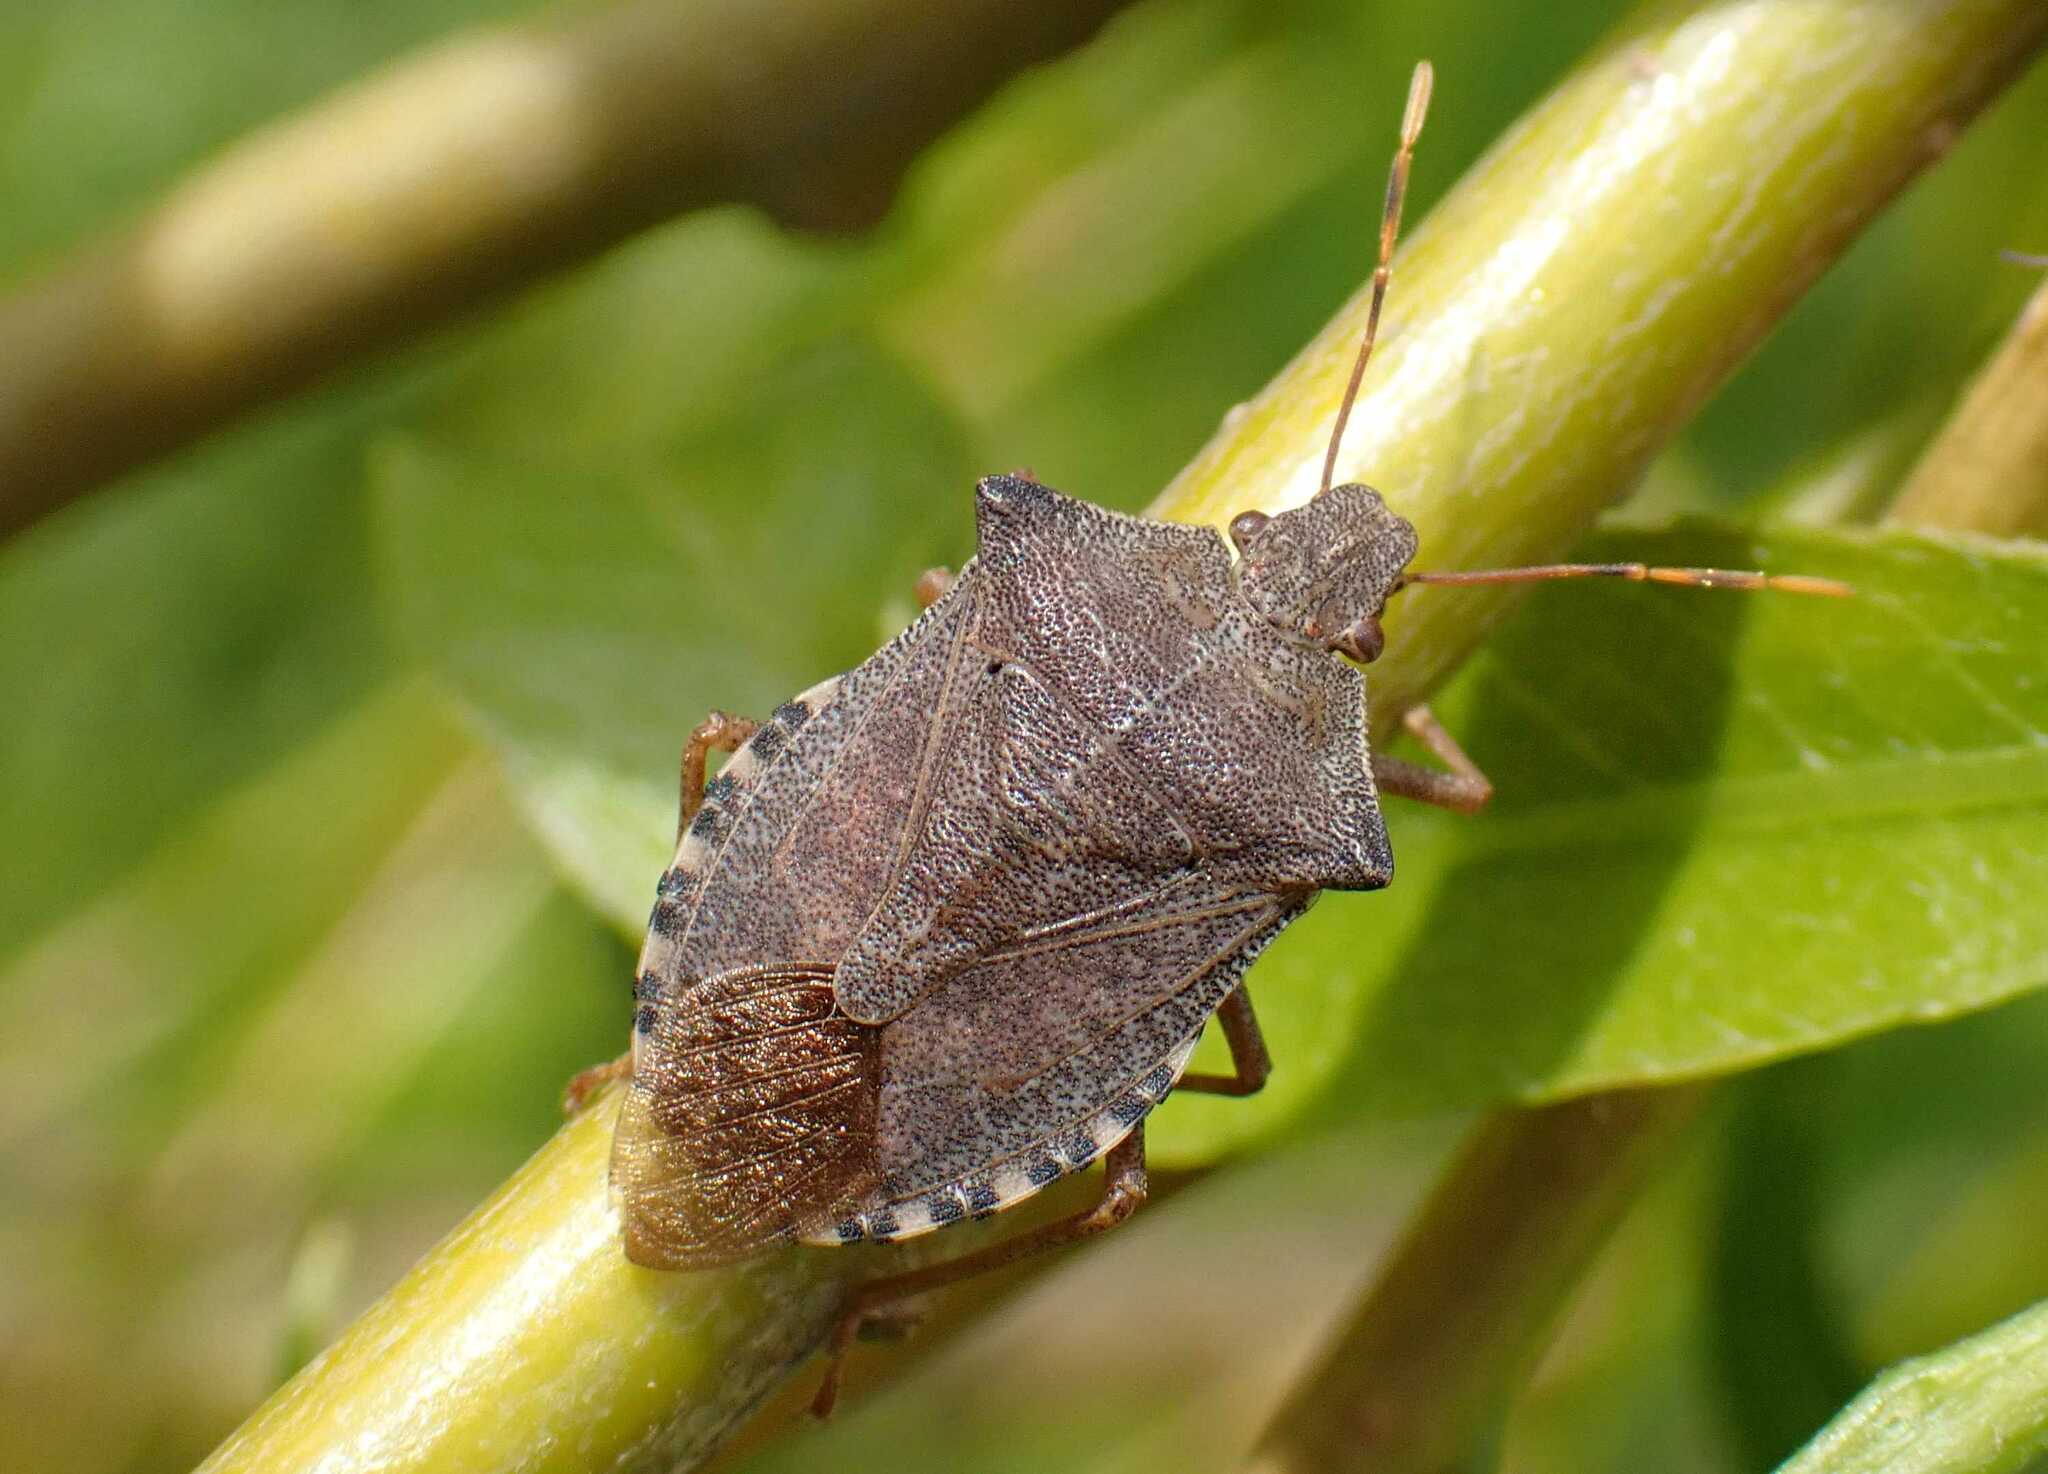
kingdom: Animalia
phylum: Arthropoda
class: Insecta
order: Hemiptera
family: Pentatomidae
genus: Arma
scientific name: Arma custos
